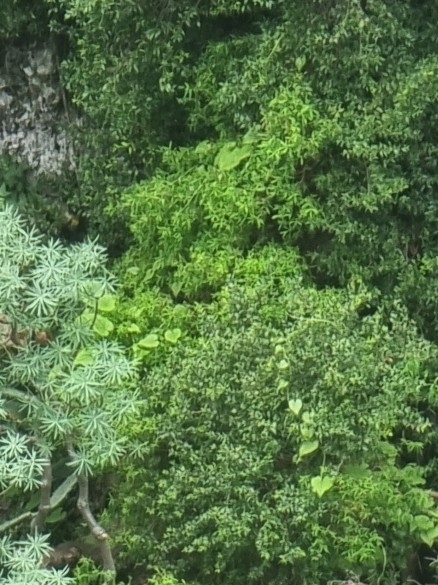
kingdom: Plantae
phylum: Tracheophyta
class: Magnoliopsida
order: Solanales
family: Convolvulaceae
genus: Convolvulus
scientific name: Convolvulus massonii
